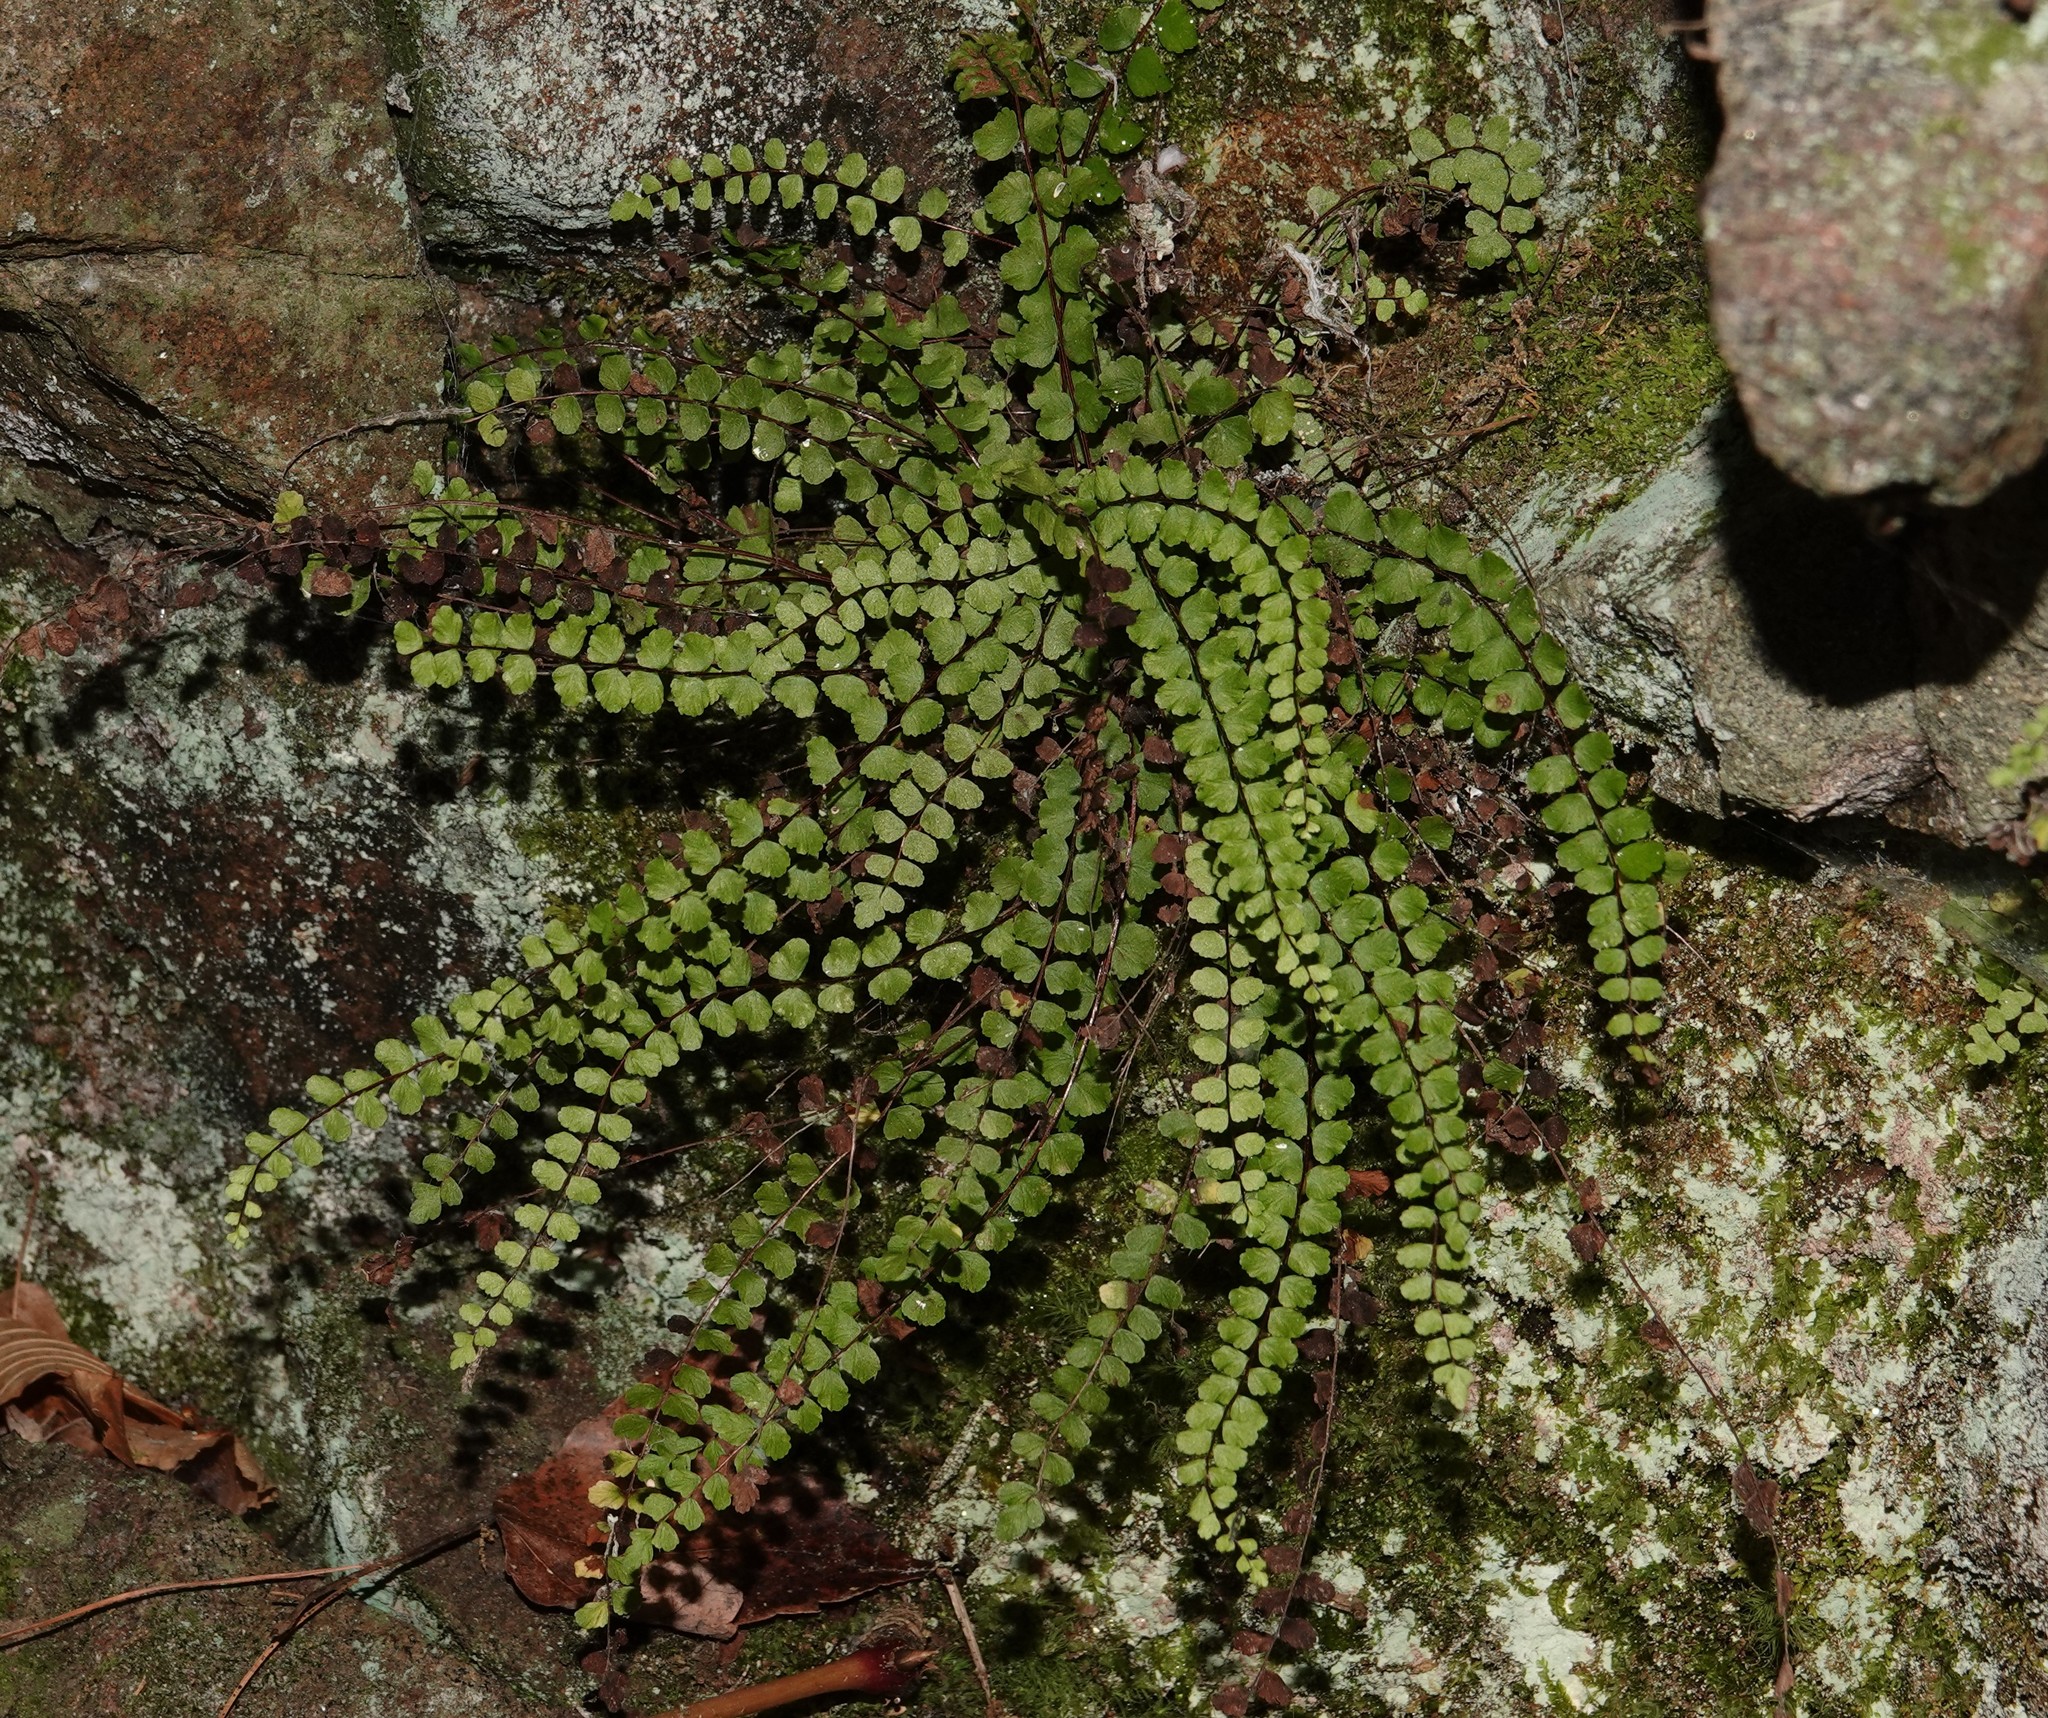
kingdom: Plantae
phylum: Tracheophyta
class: Polypodiopsida
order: Polypodiales
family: Aspleniaceae
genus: Asplenium
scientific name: Asplenium trichomanes
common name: Maidenhair spleenwort
